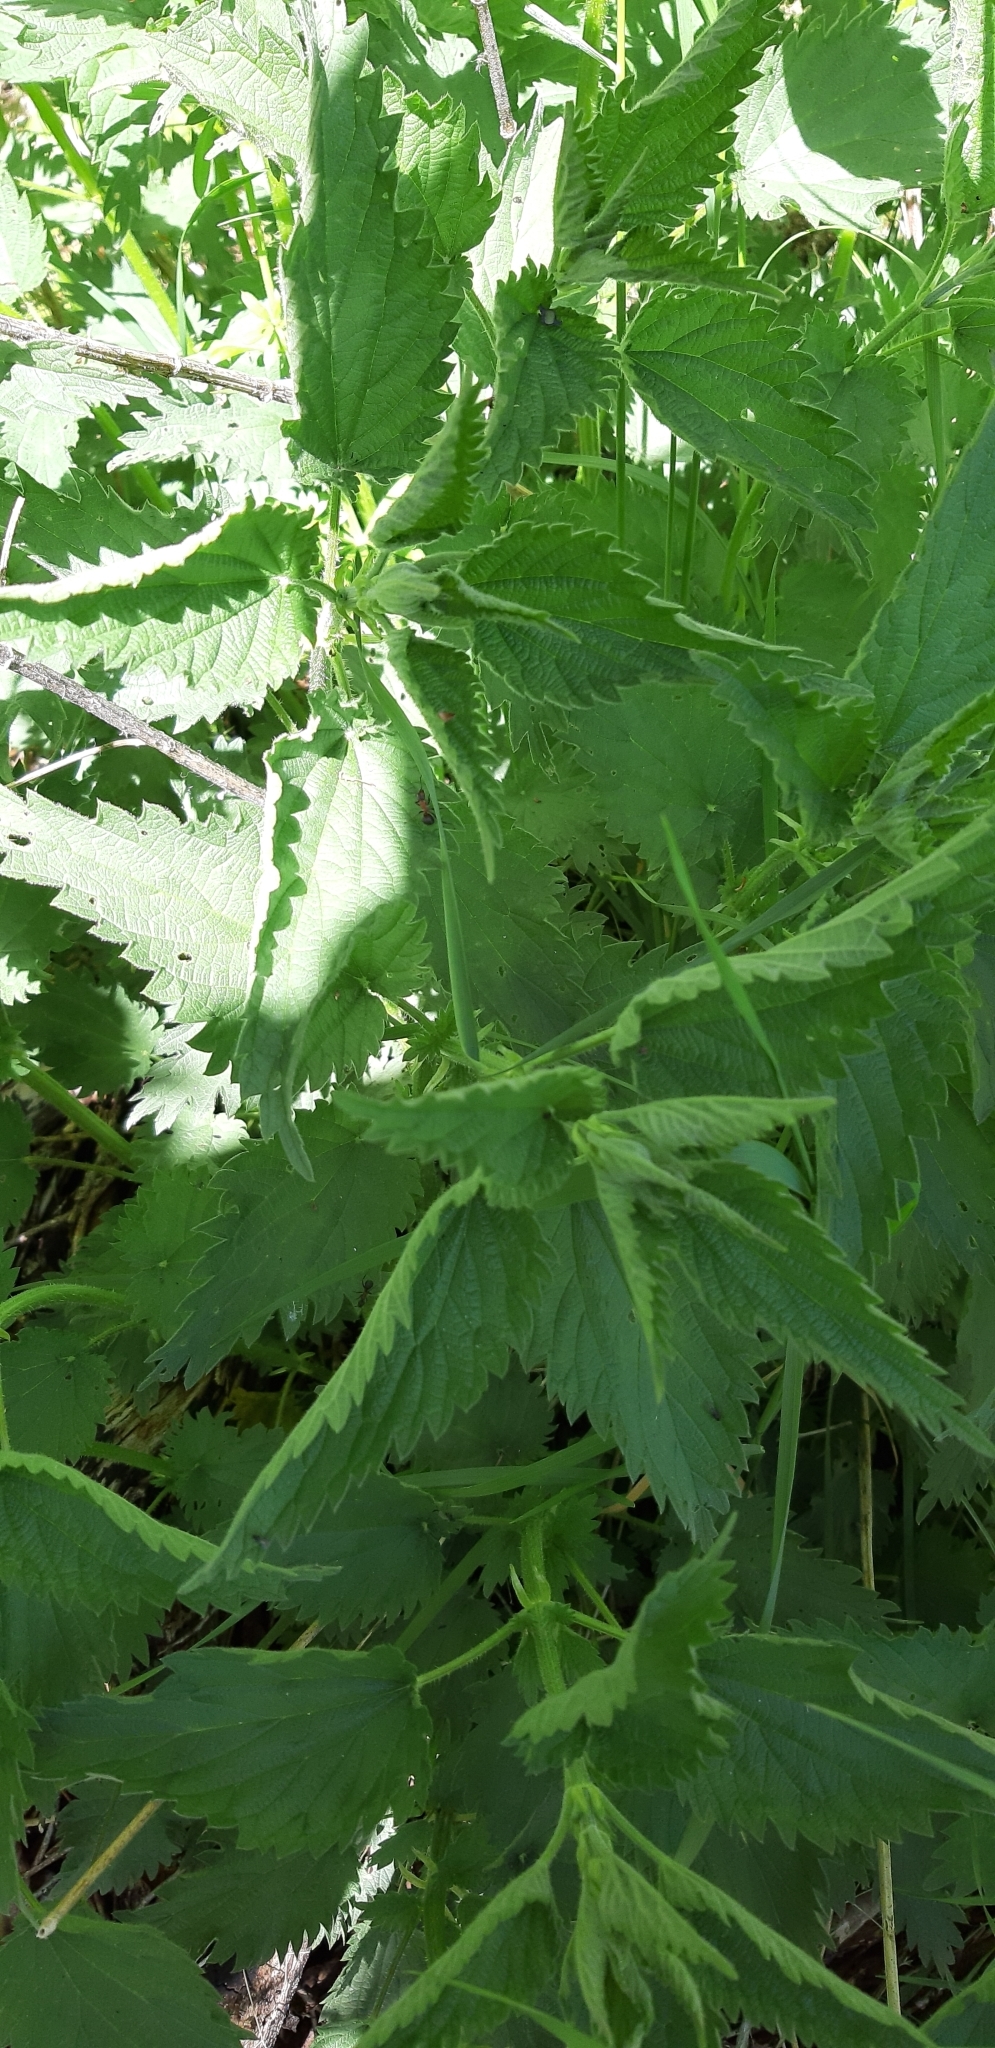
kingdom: Plantae
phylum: Tracheophyta
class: Magnoliopsida
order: Rosales
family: Urticaceae
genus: Urtica
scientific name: Urtica dioica
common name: Common nettle
